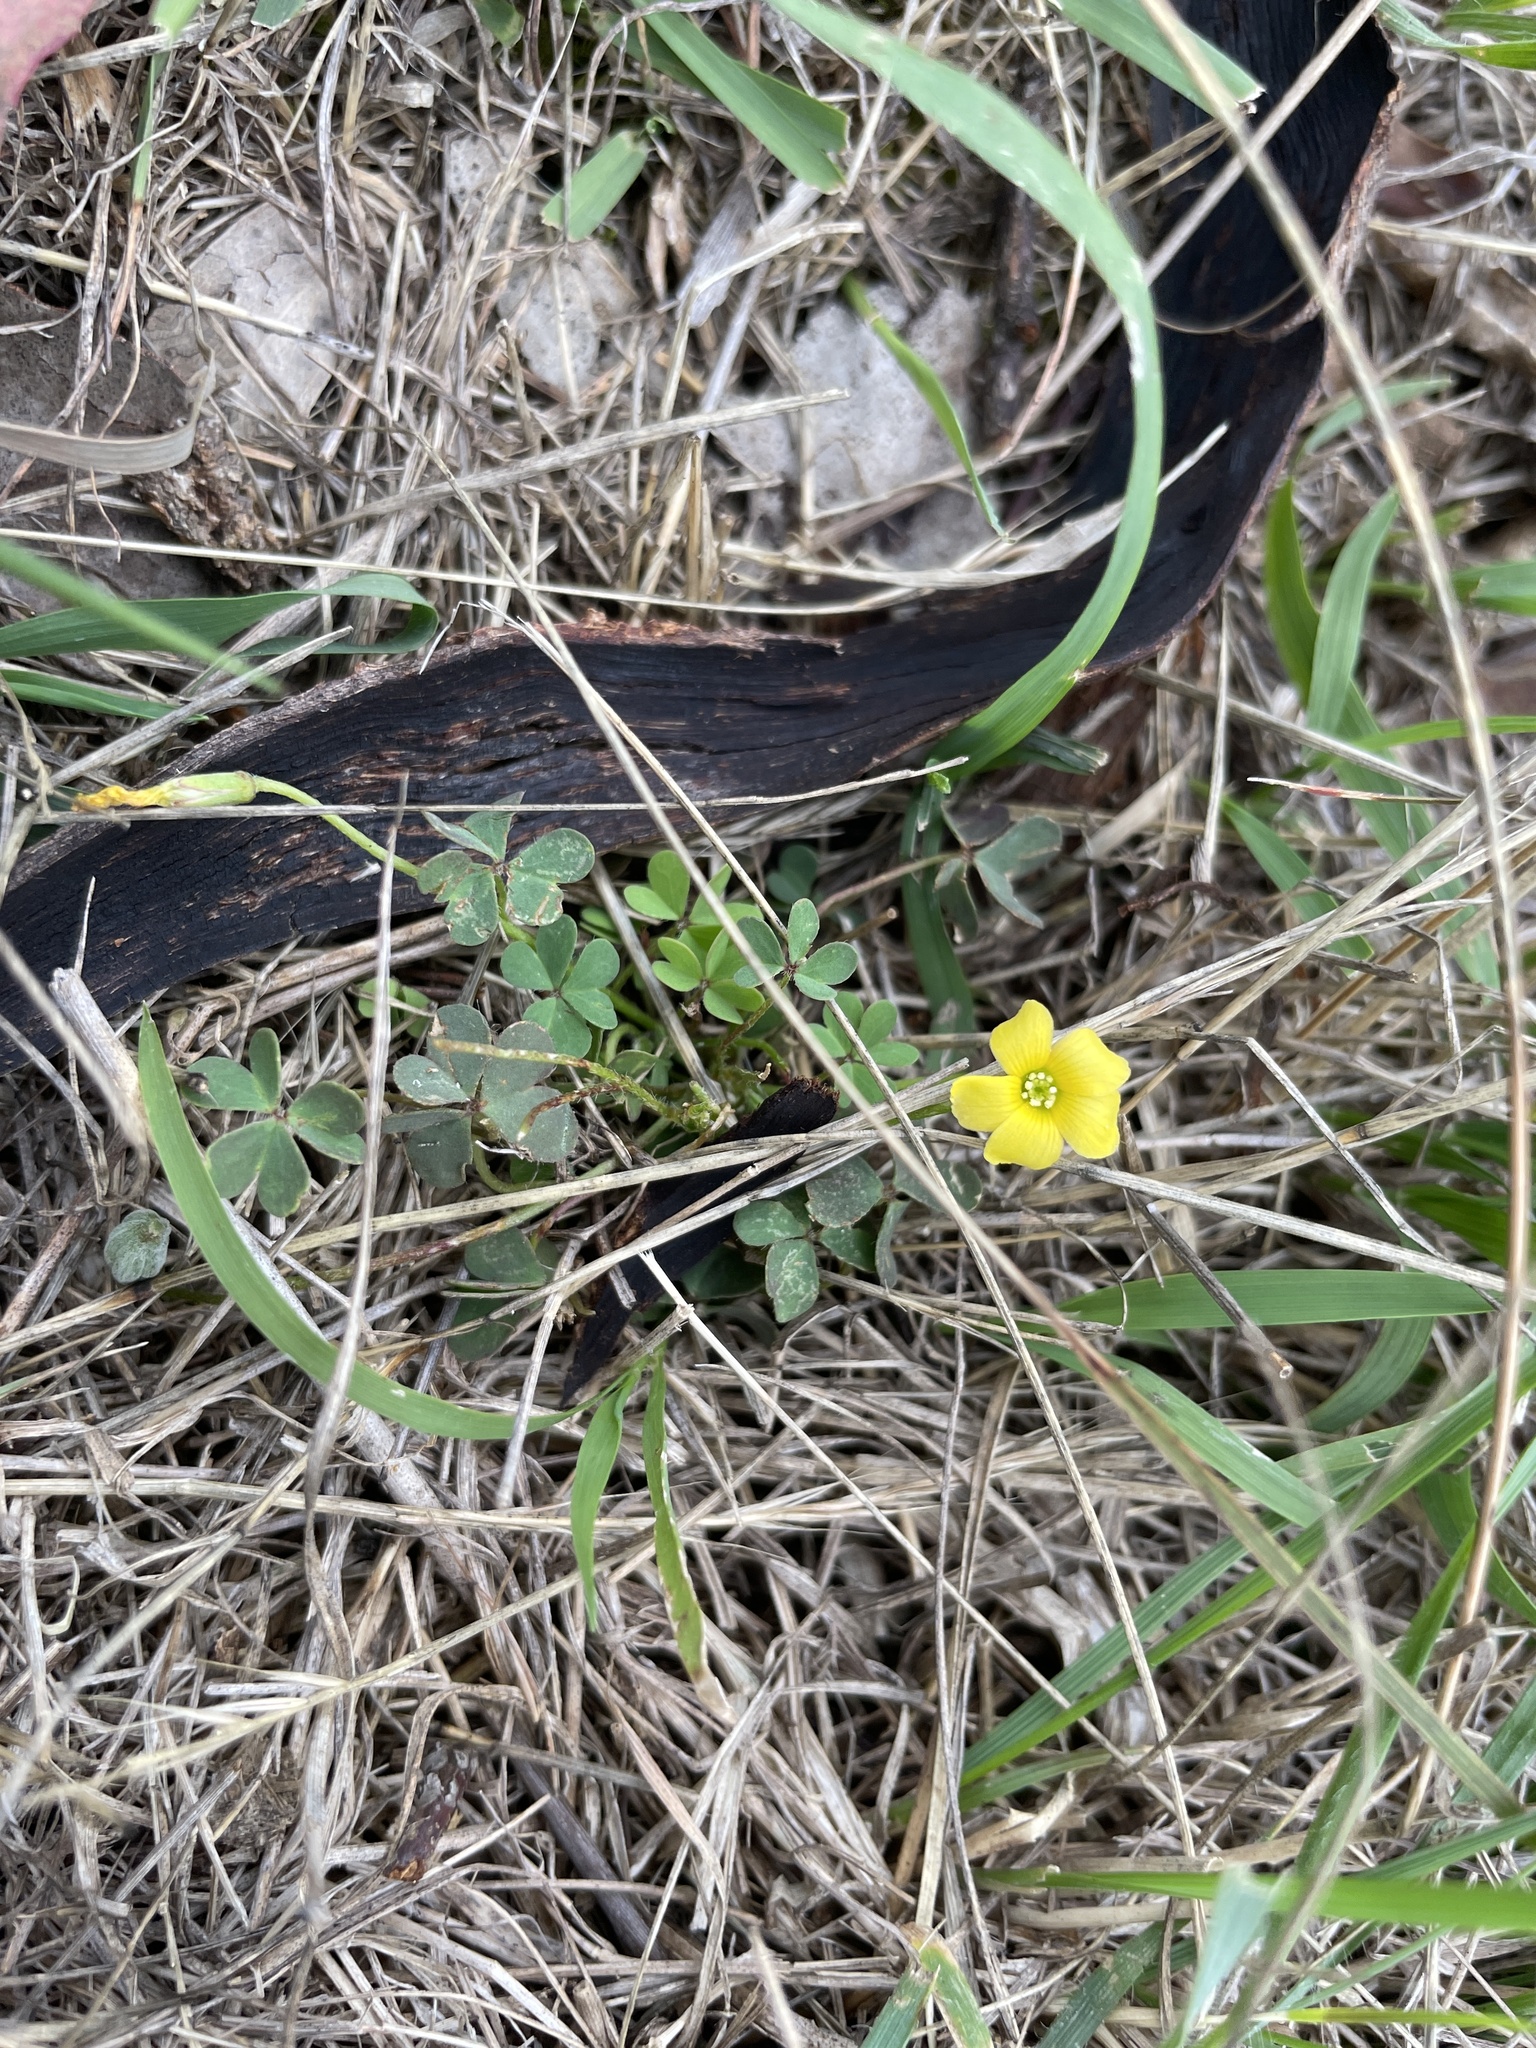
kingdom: Plantae
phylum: Tracheophyta
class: Magnoliopsida
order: Oxalidales
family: Oxalidaceae
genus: Oxalis
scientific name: Oxalis
